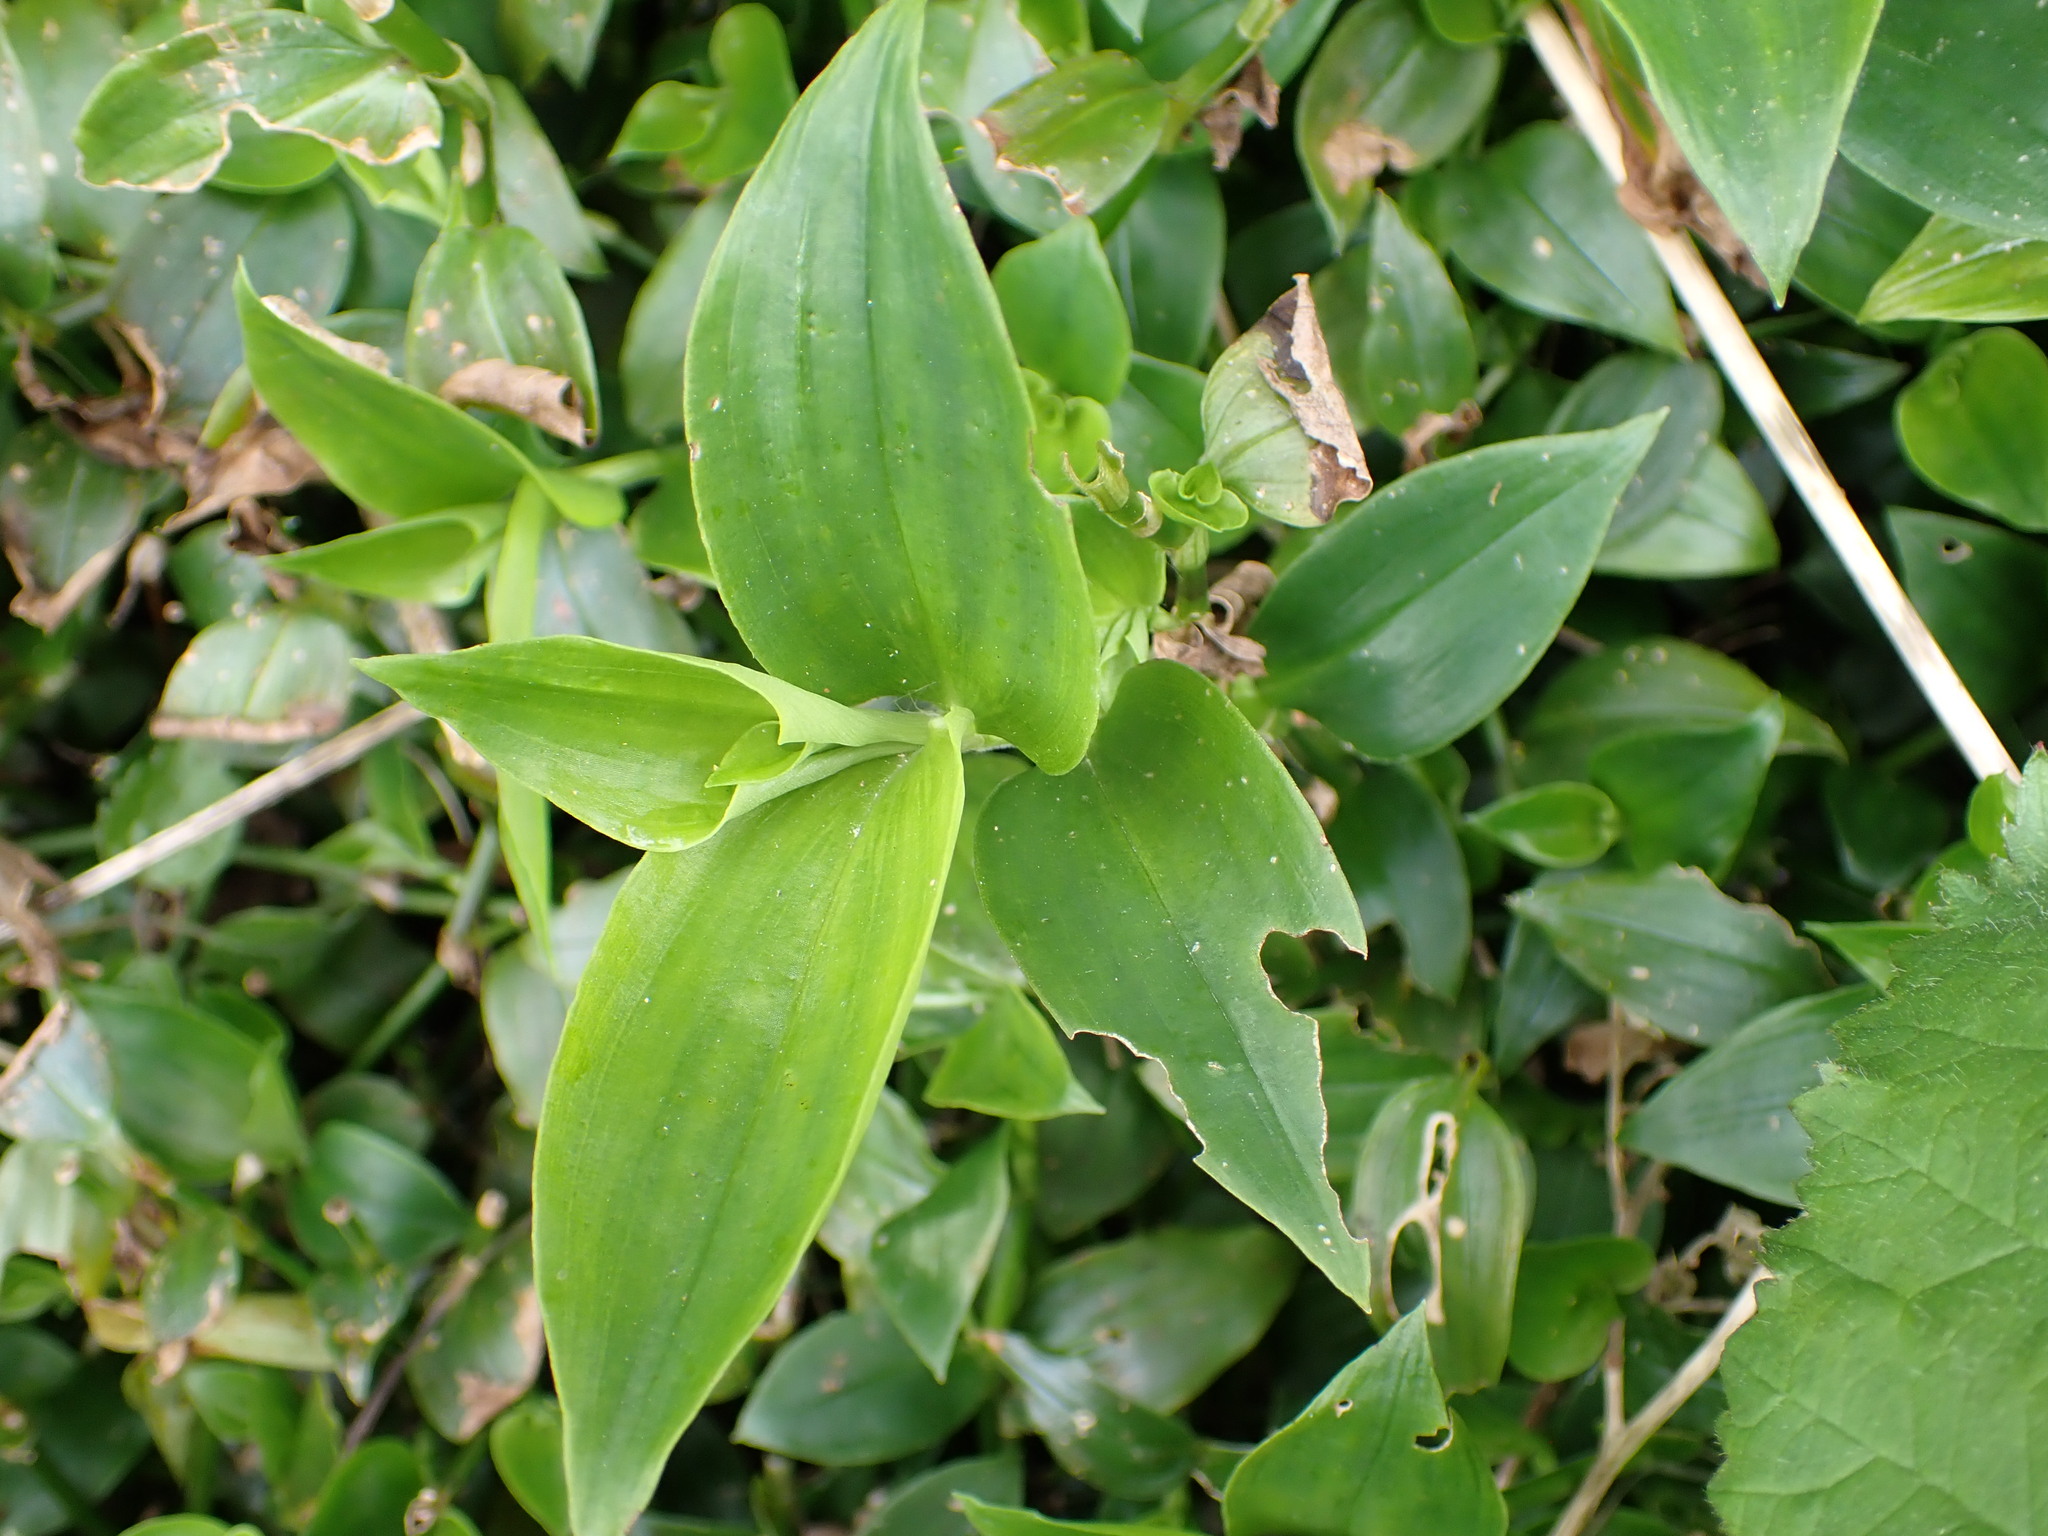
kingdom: Plantae
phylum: Tracheophyta
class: Liliopsida
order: Commelinales
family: Commelinaceae
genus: Tradescantia
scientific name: Tradescantia fluminensis
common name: Wandering-jew
